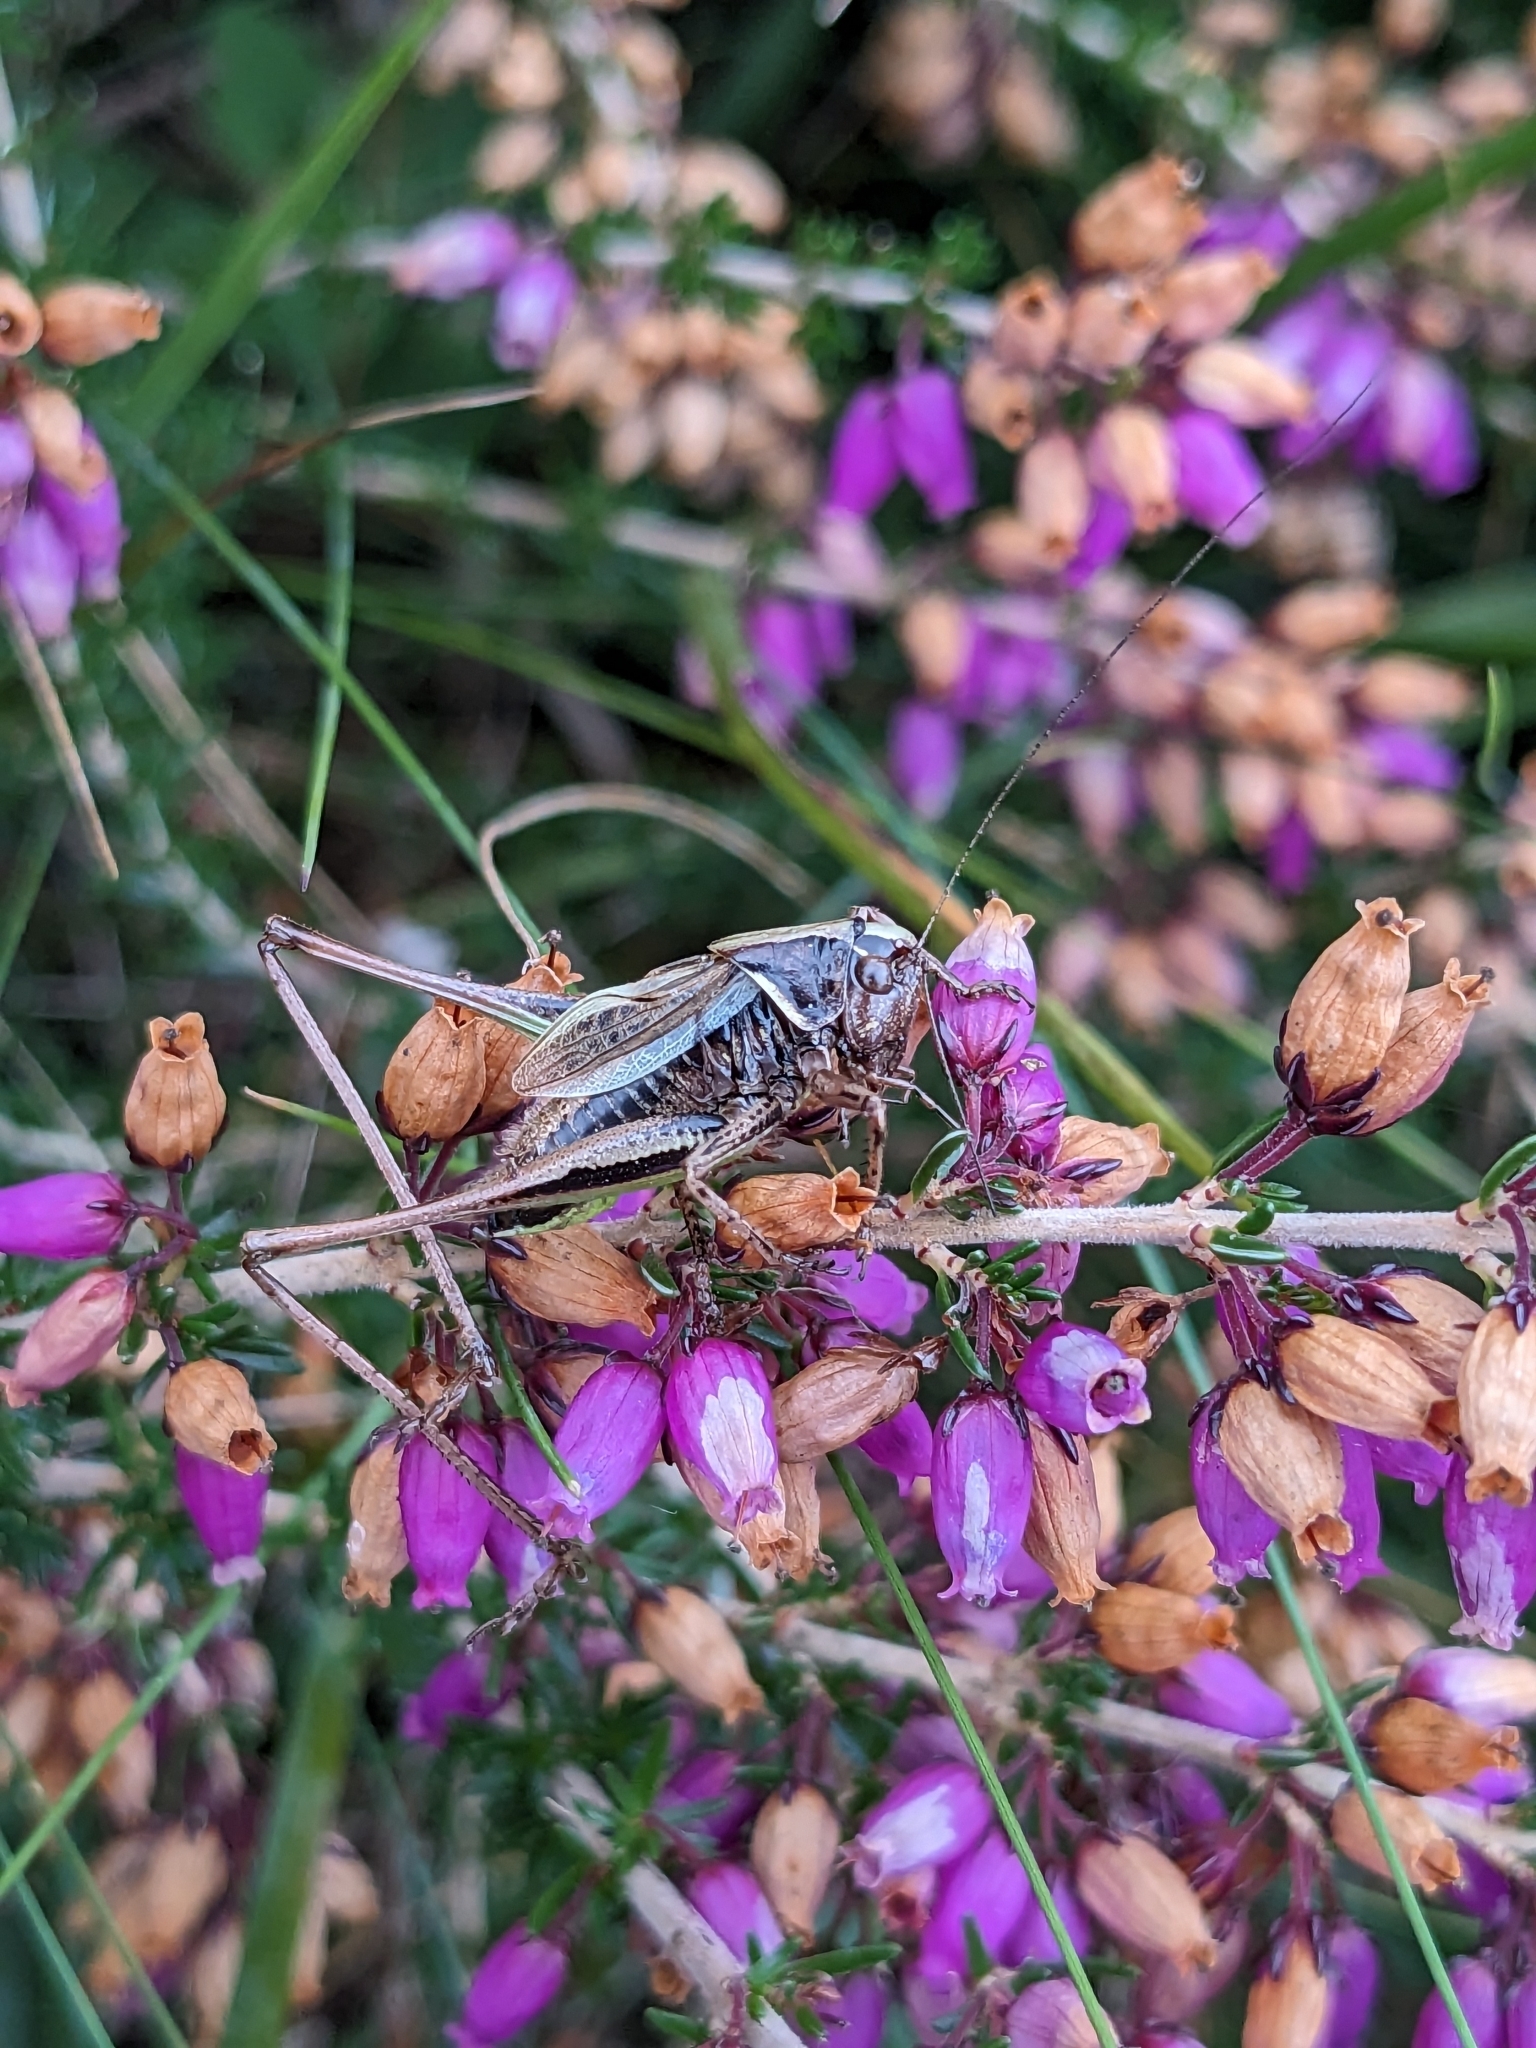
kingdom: Animalia
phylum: Arthropoda
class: Insecta
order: Orthoptera
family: Tettigoniidae
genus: Metrioptera
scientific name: Metrioptera brachyptera
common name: Bog bush-cricket
